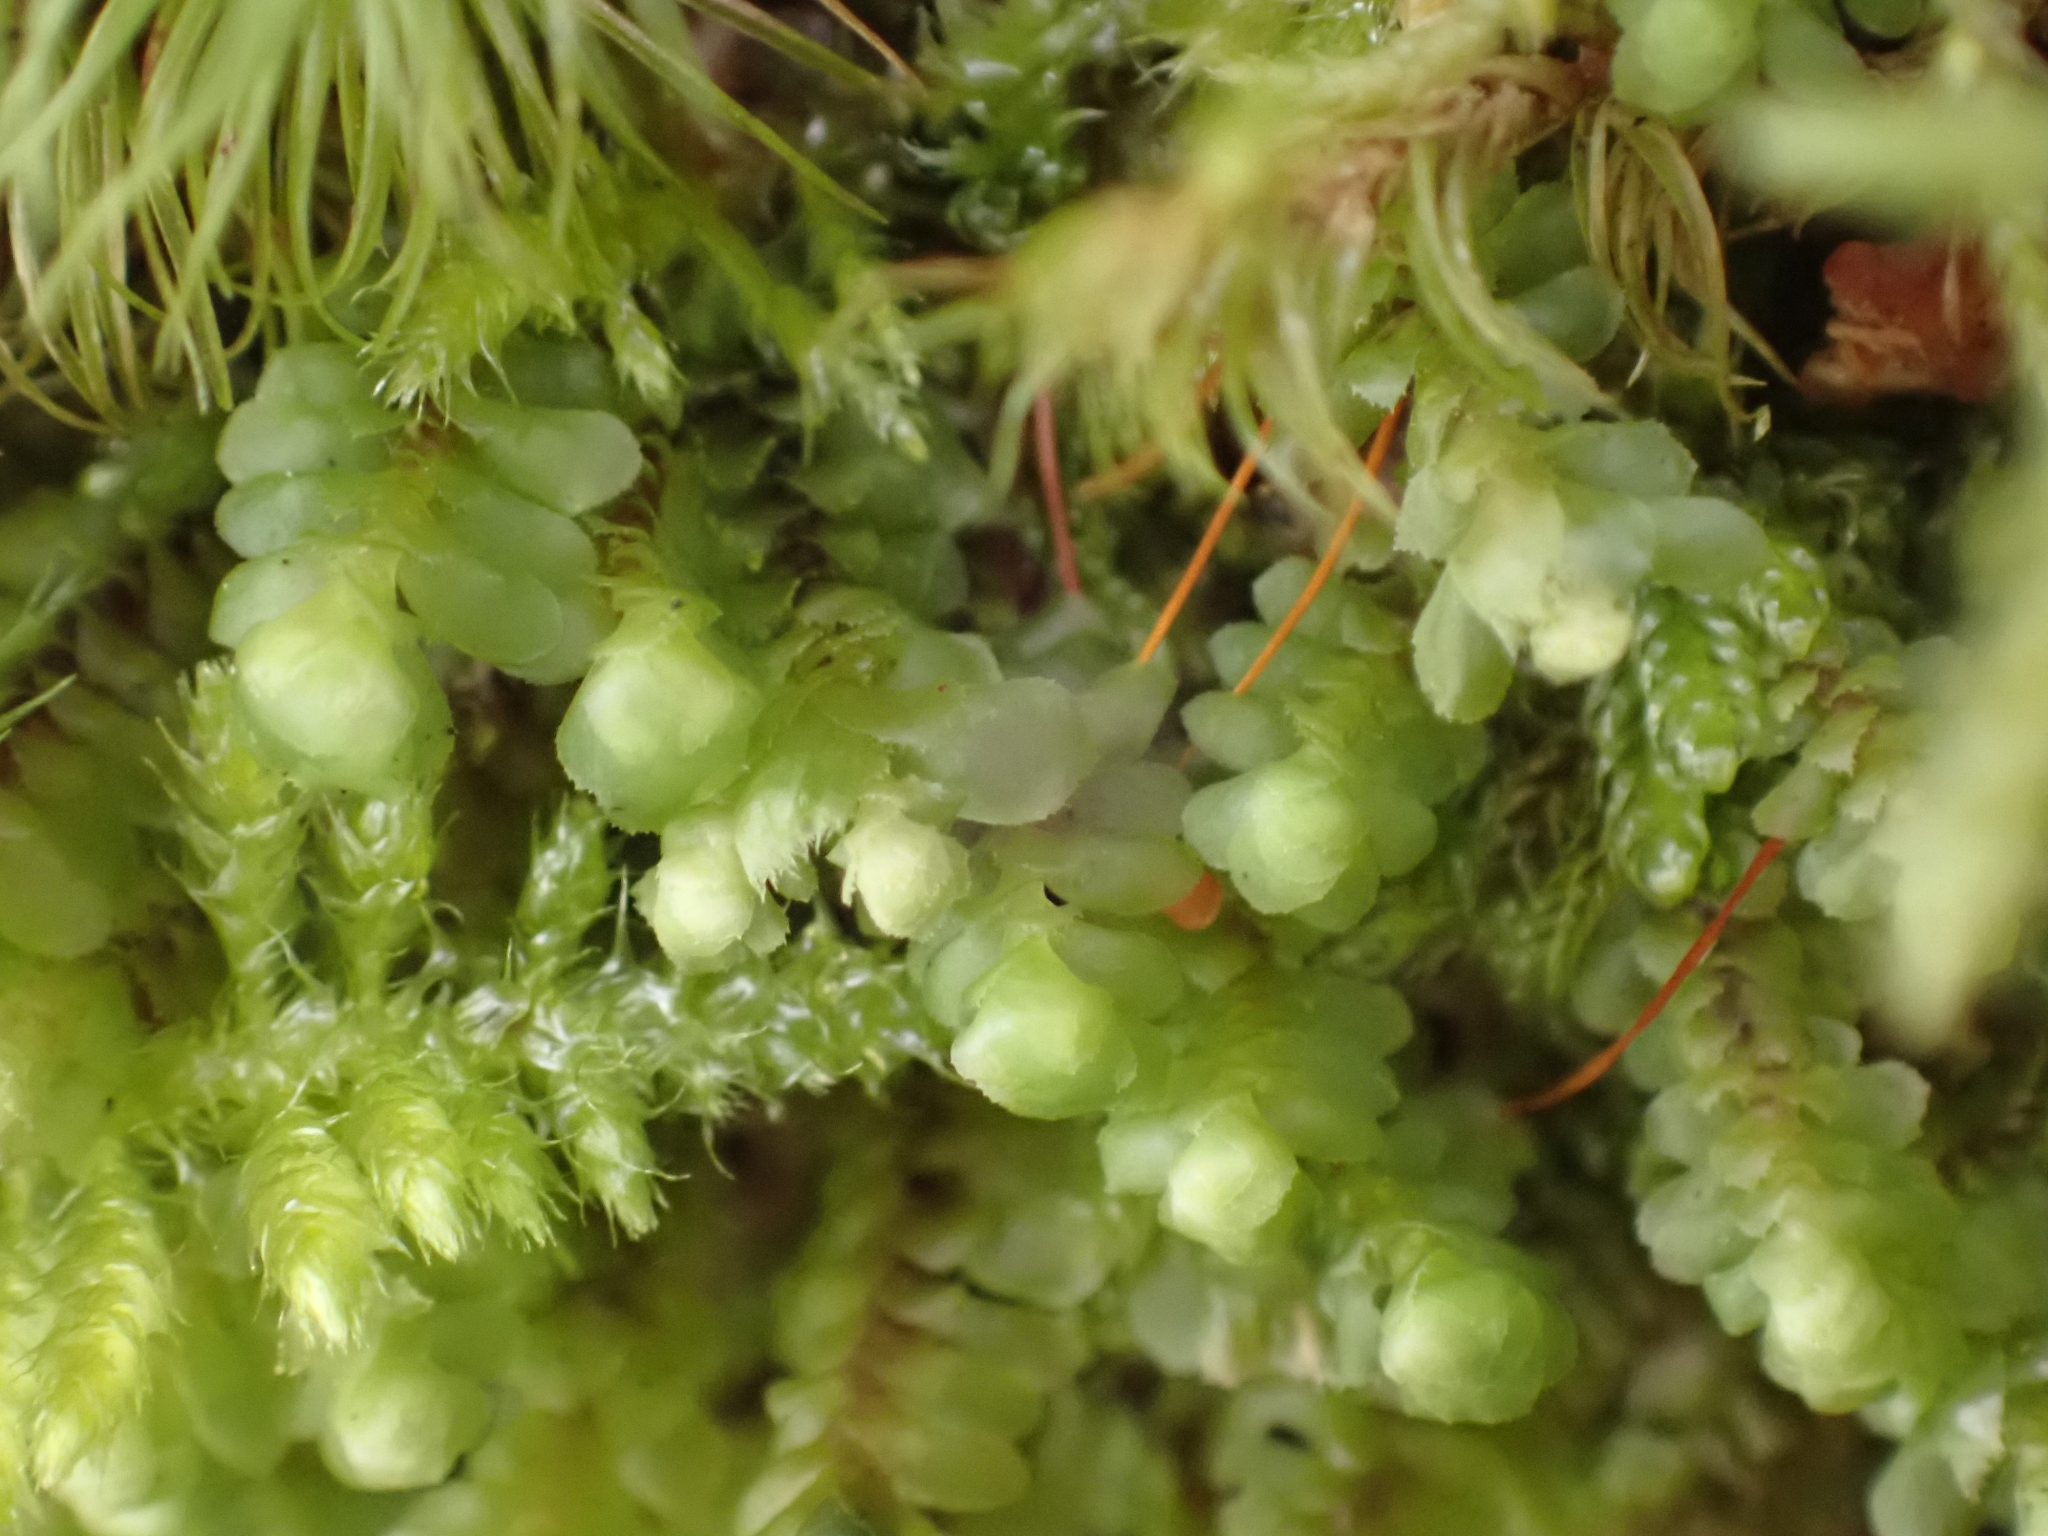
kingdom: Plantae
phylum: Marchantiophyta
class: Jungermanniopsida
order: Jungermanniales
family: Scapaniaceae
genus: Scapania
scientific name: Scapania bolanderi
